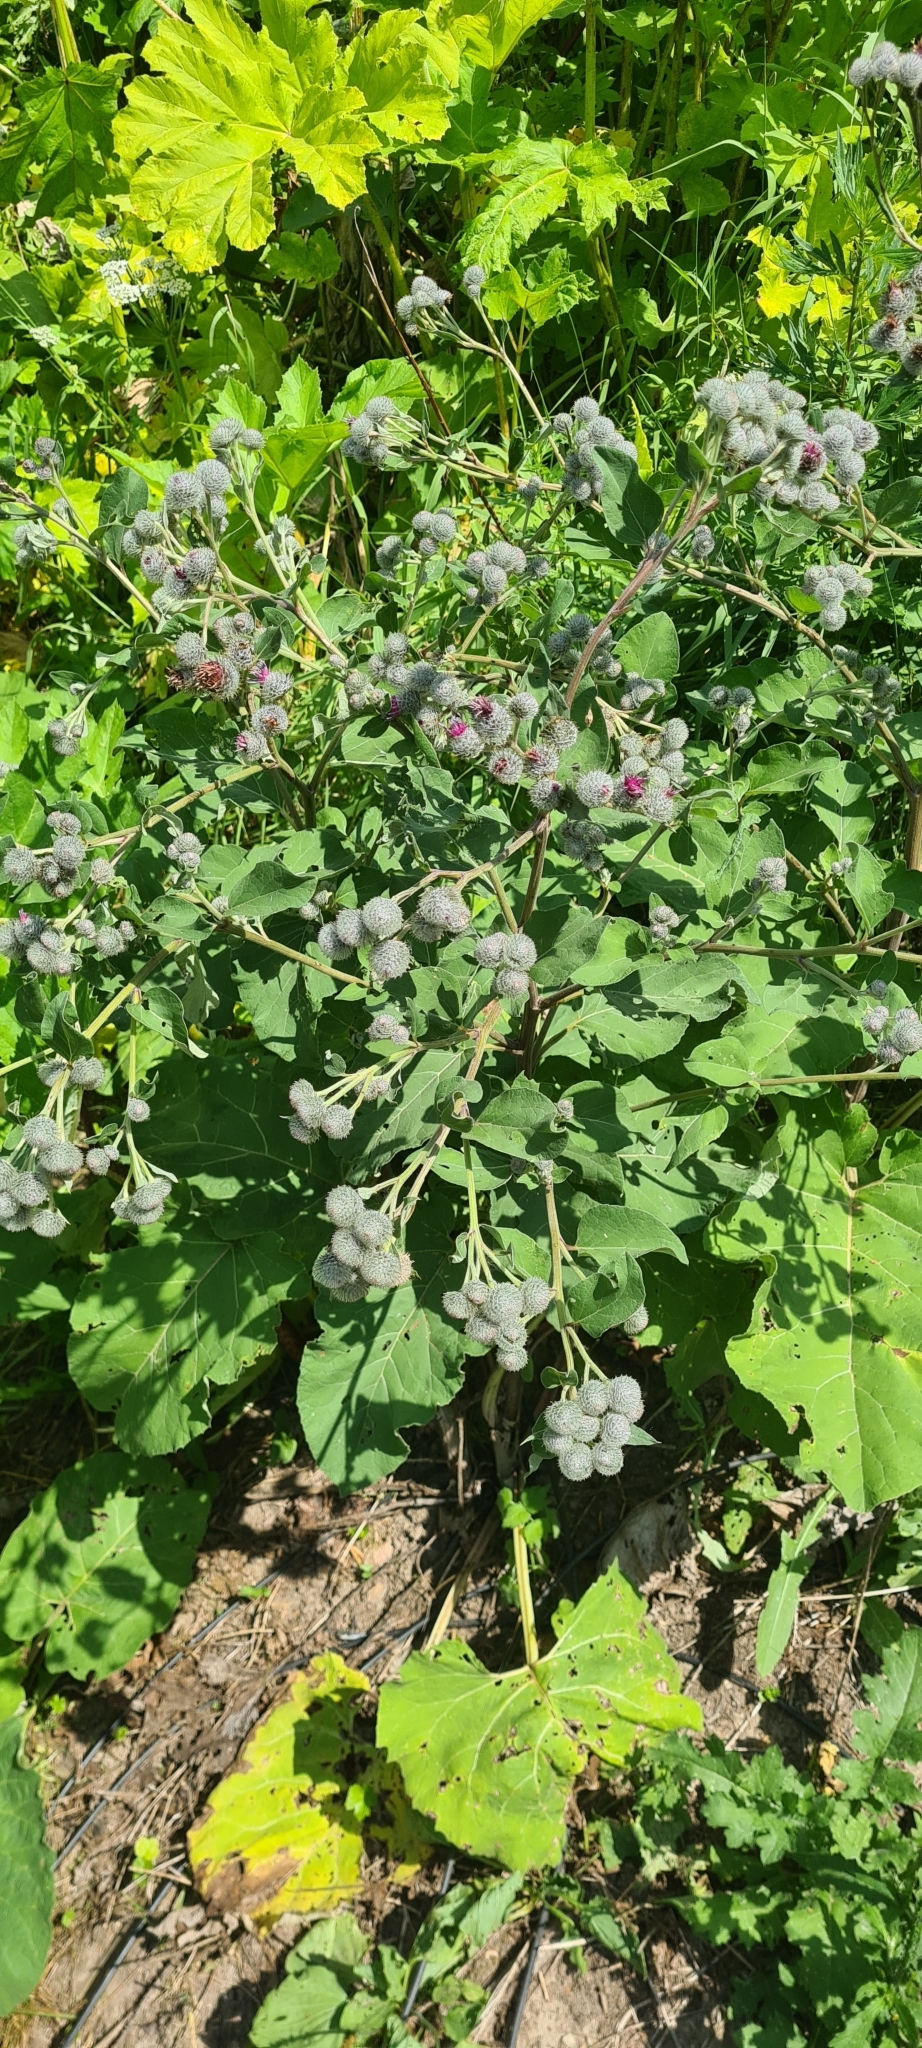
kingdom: Plantae
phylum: Tracheophyta
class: Magnoliopsida
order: Asterales
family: Asteraceae
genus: Arctium
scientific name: Arctium tomentosum
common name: Woolly burdock
